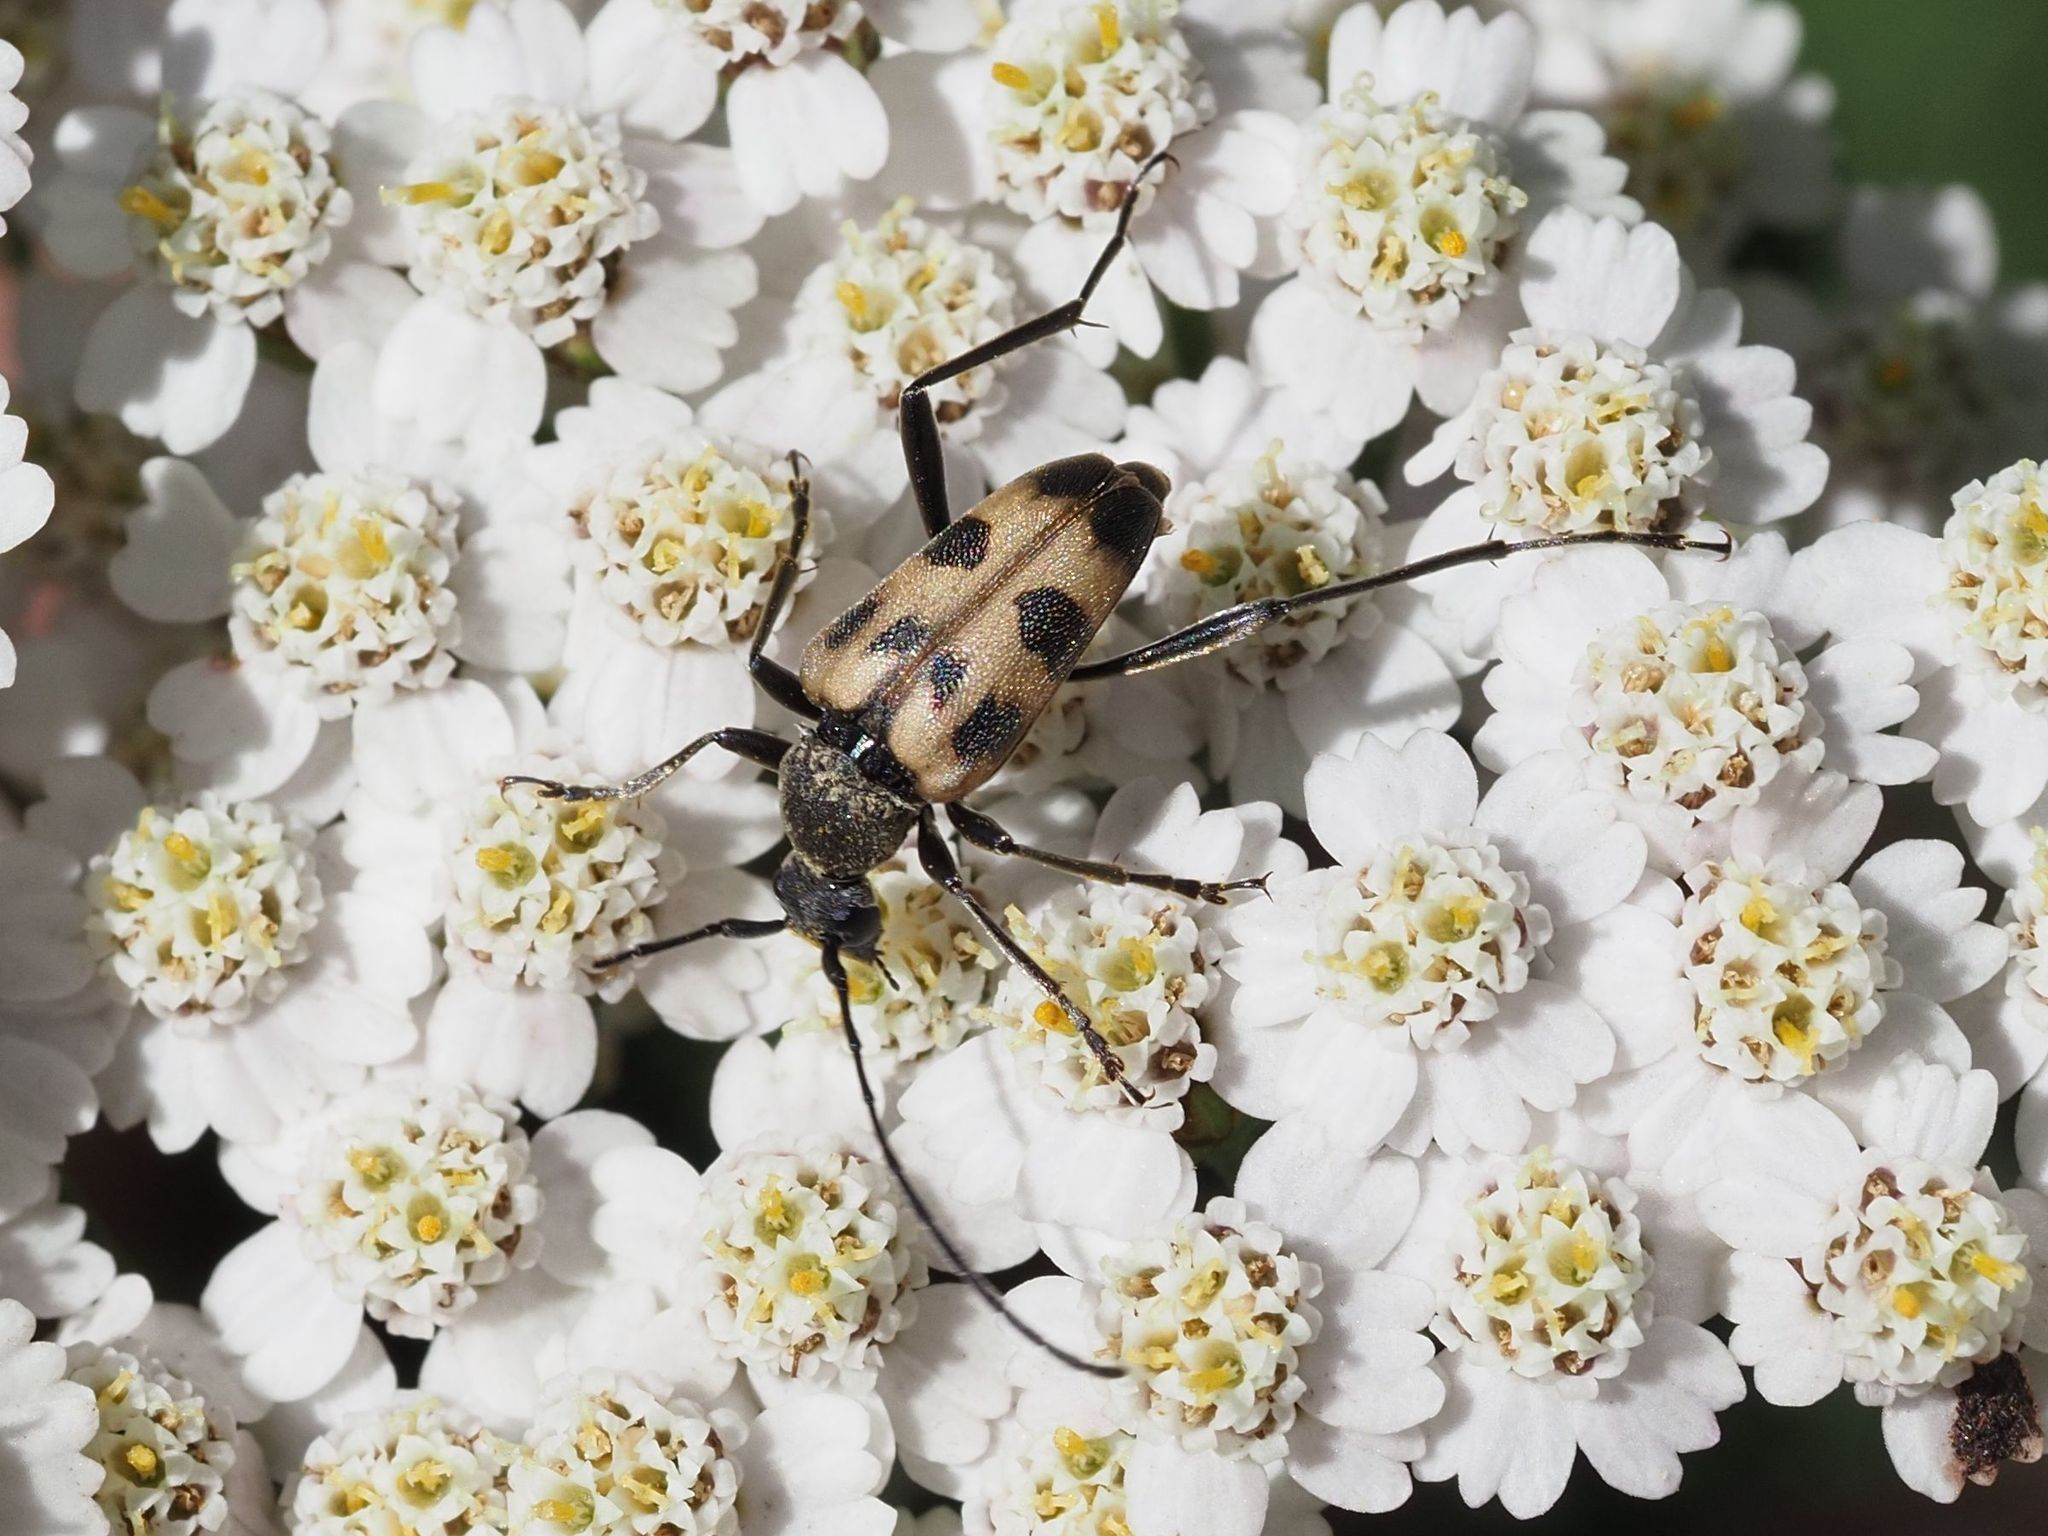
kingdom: Animalia
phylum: Arthropoda
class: Insecta
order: Coleoptera
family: Cerambycidae
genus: Pachytodes
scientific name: Pachytodes cerambyciformis
